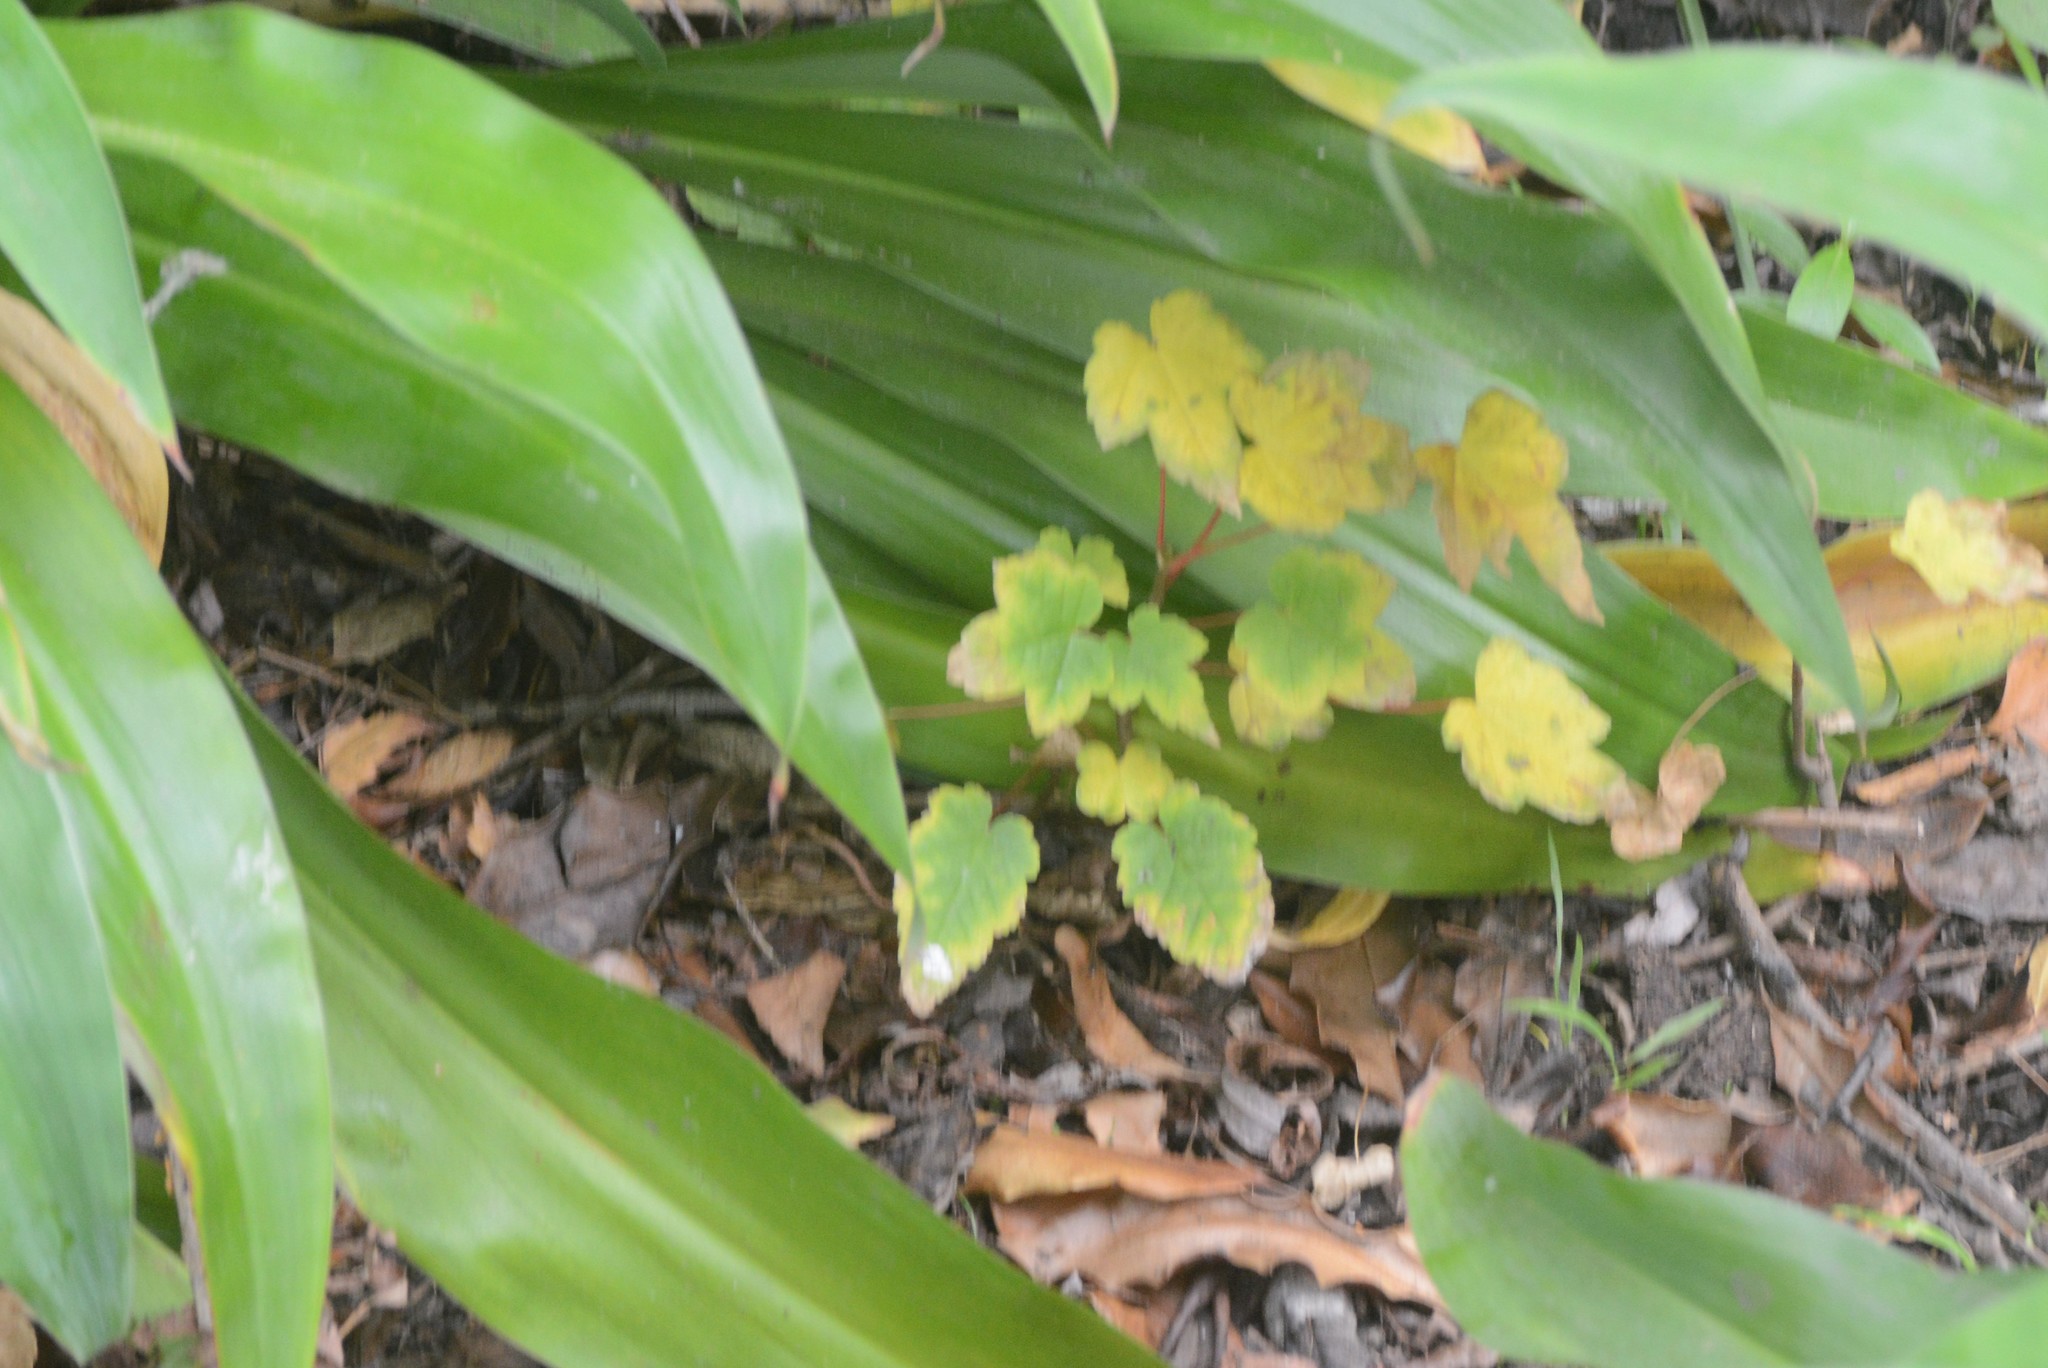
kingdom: Plantae
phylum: Tracheophyta
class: Magnoliopsida
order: Sapindales
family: Sapindaceae
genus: Acer
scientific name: Acer pseudoplatanus
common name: Sycamore
